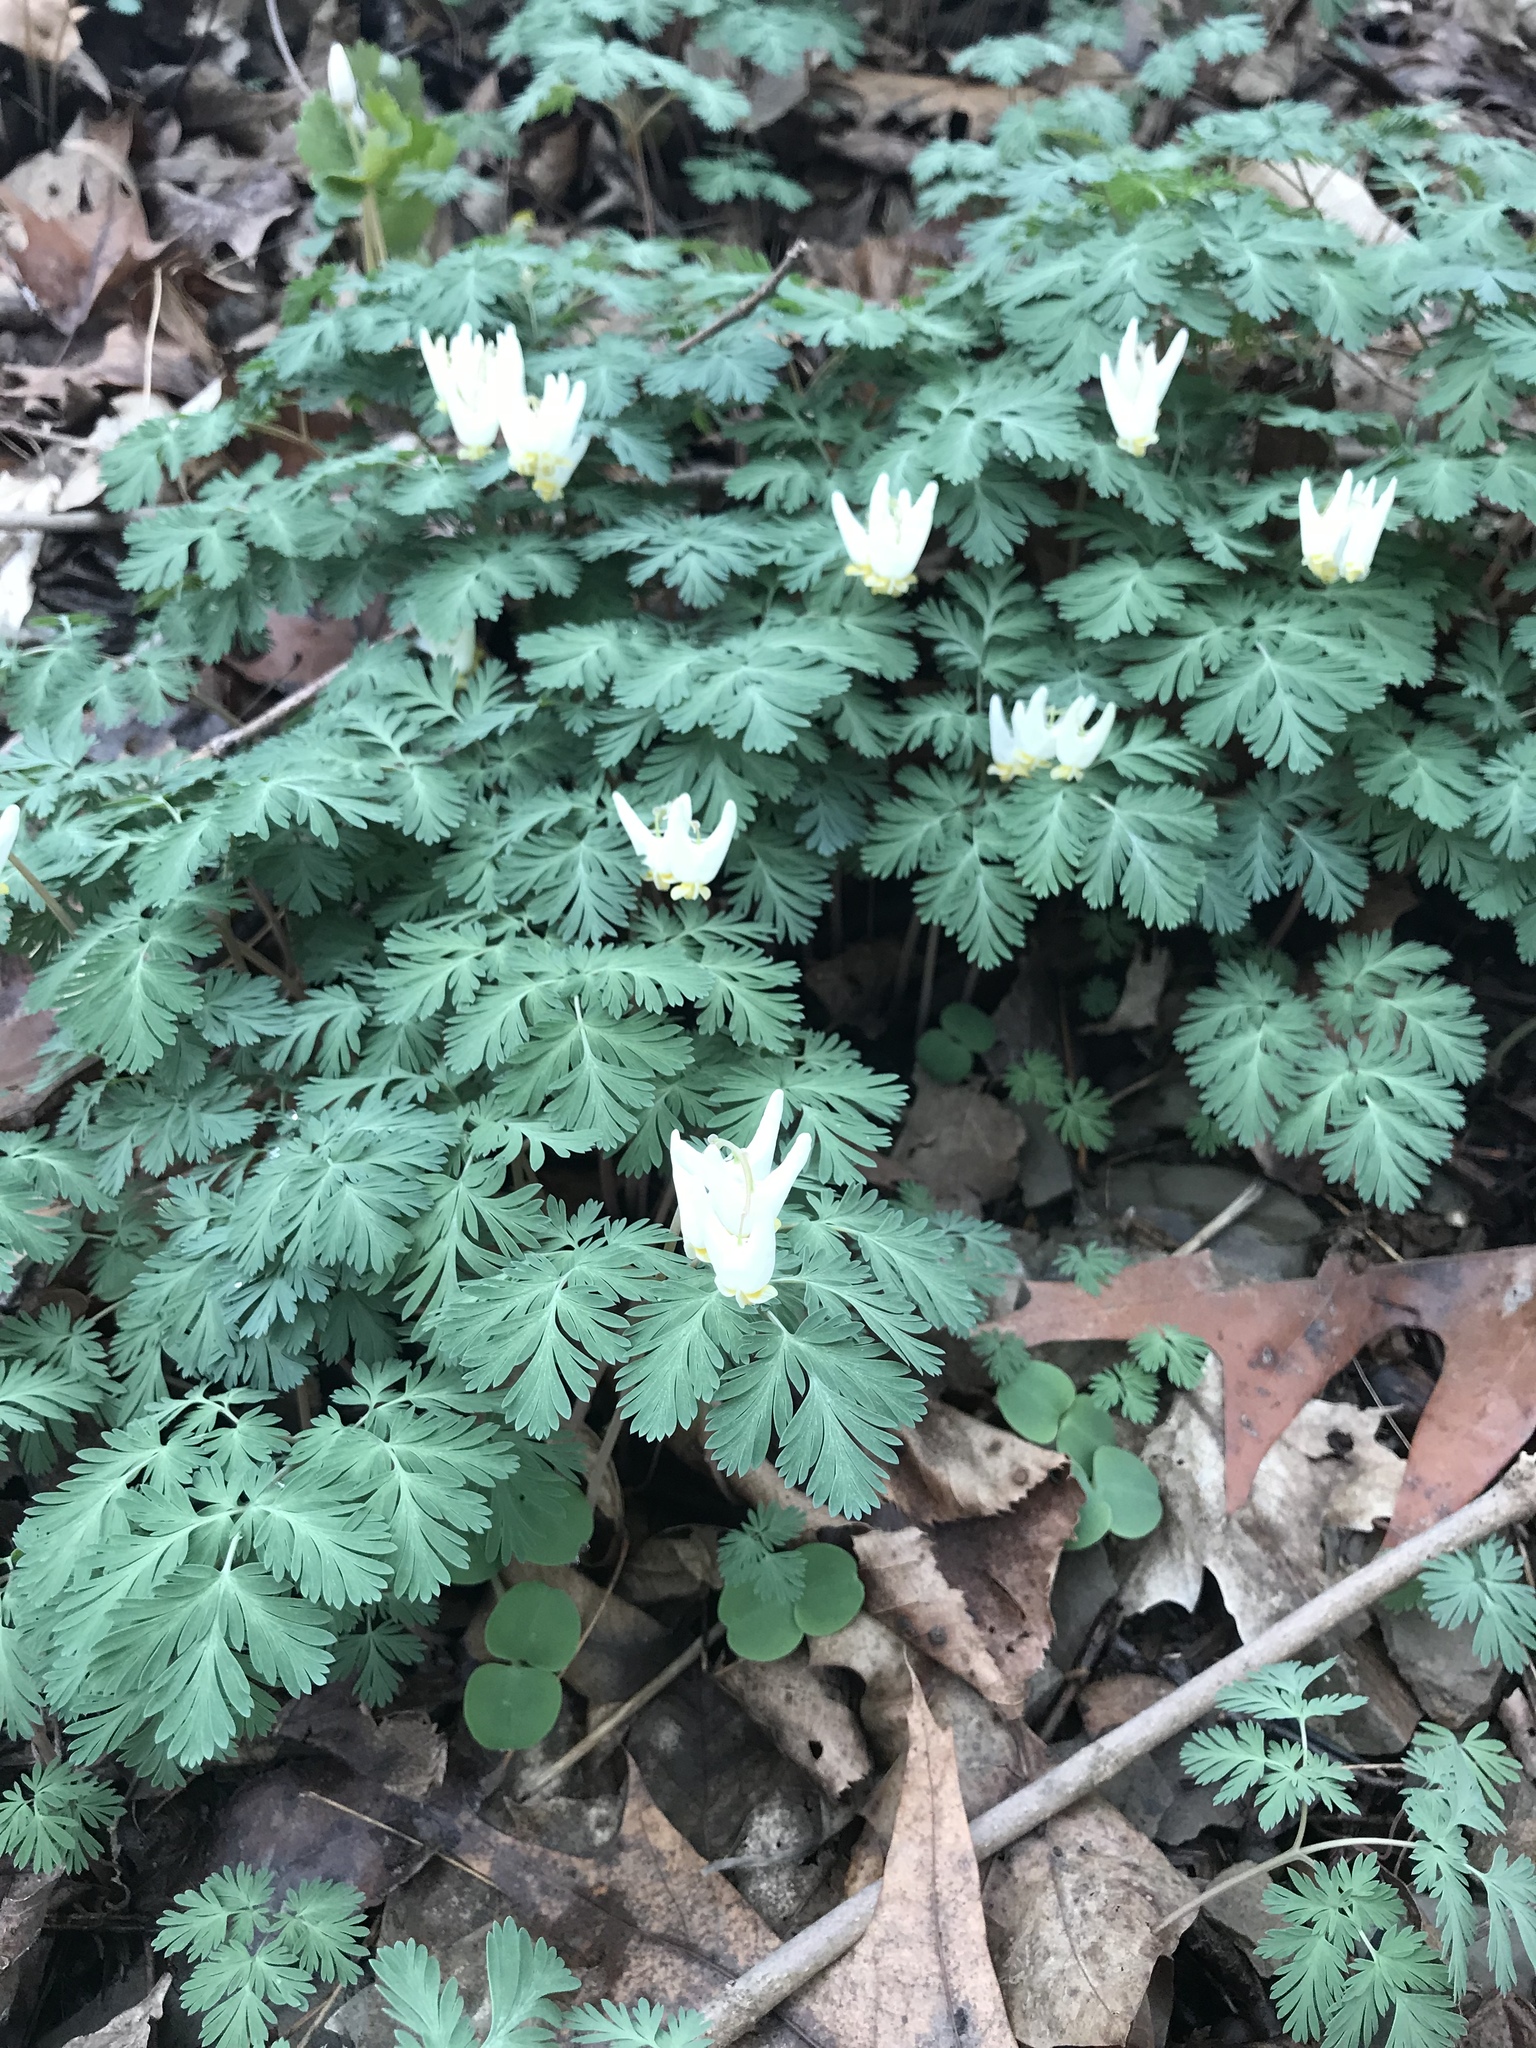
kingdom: Plantae
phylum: Tracheophyta
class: Magnoliopsida
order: Ranunculales
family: Papaveraceae
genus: Dicentra
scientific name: Dicentra cucullaria
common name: Dutchman's breeches
